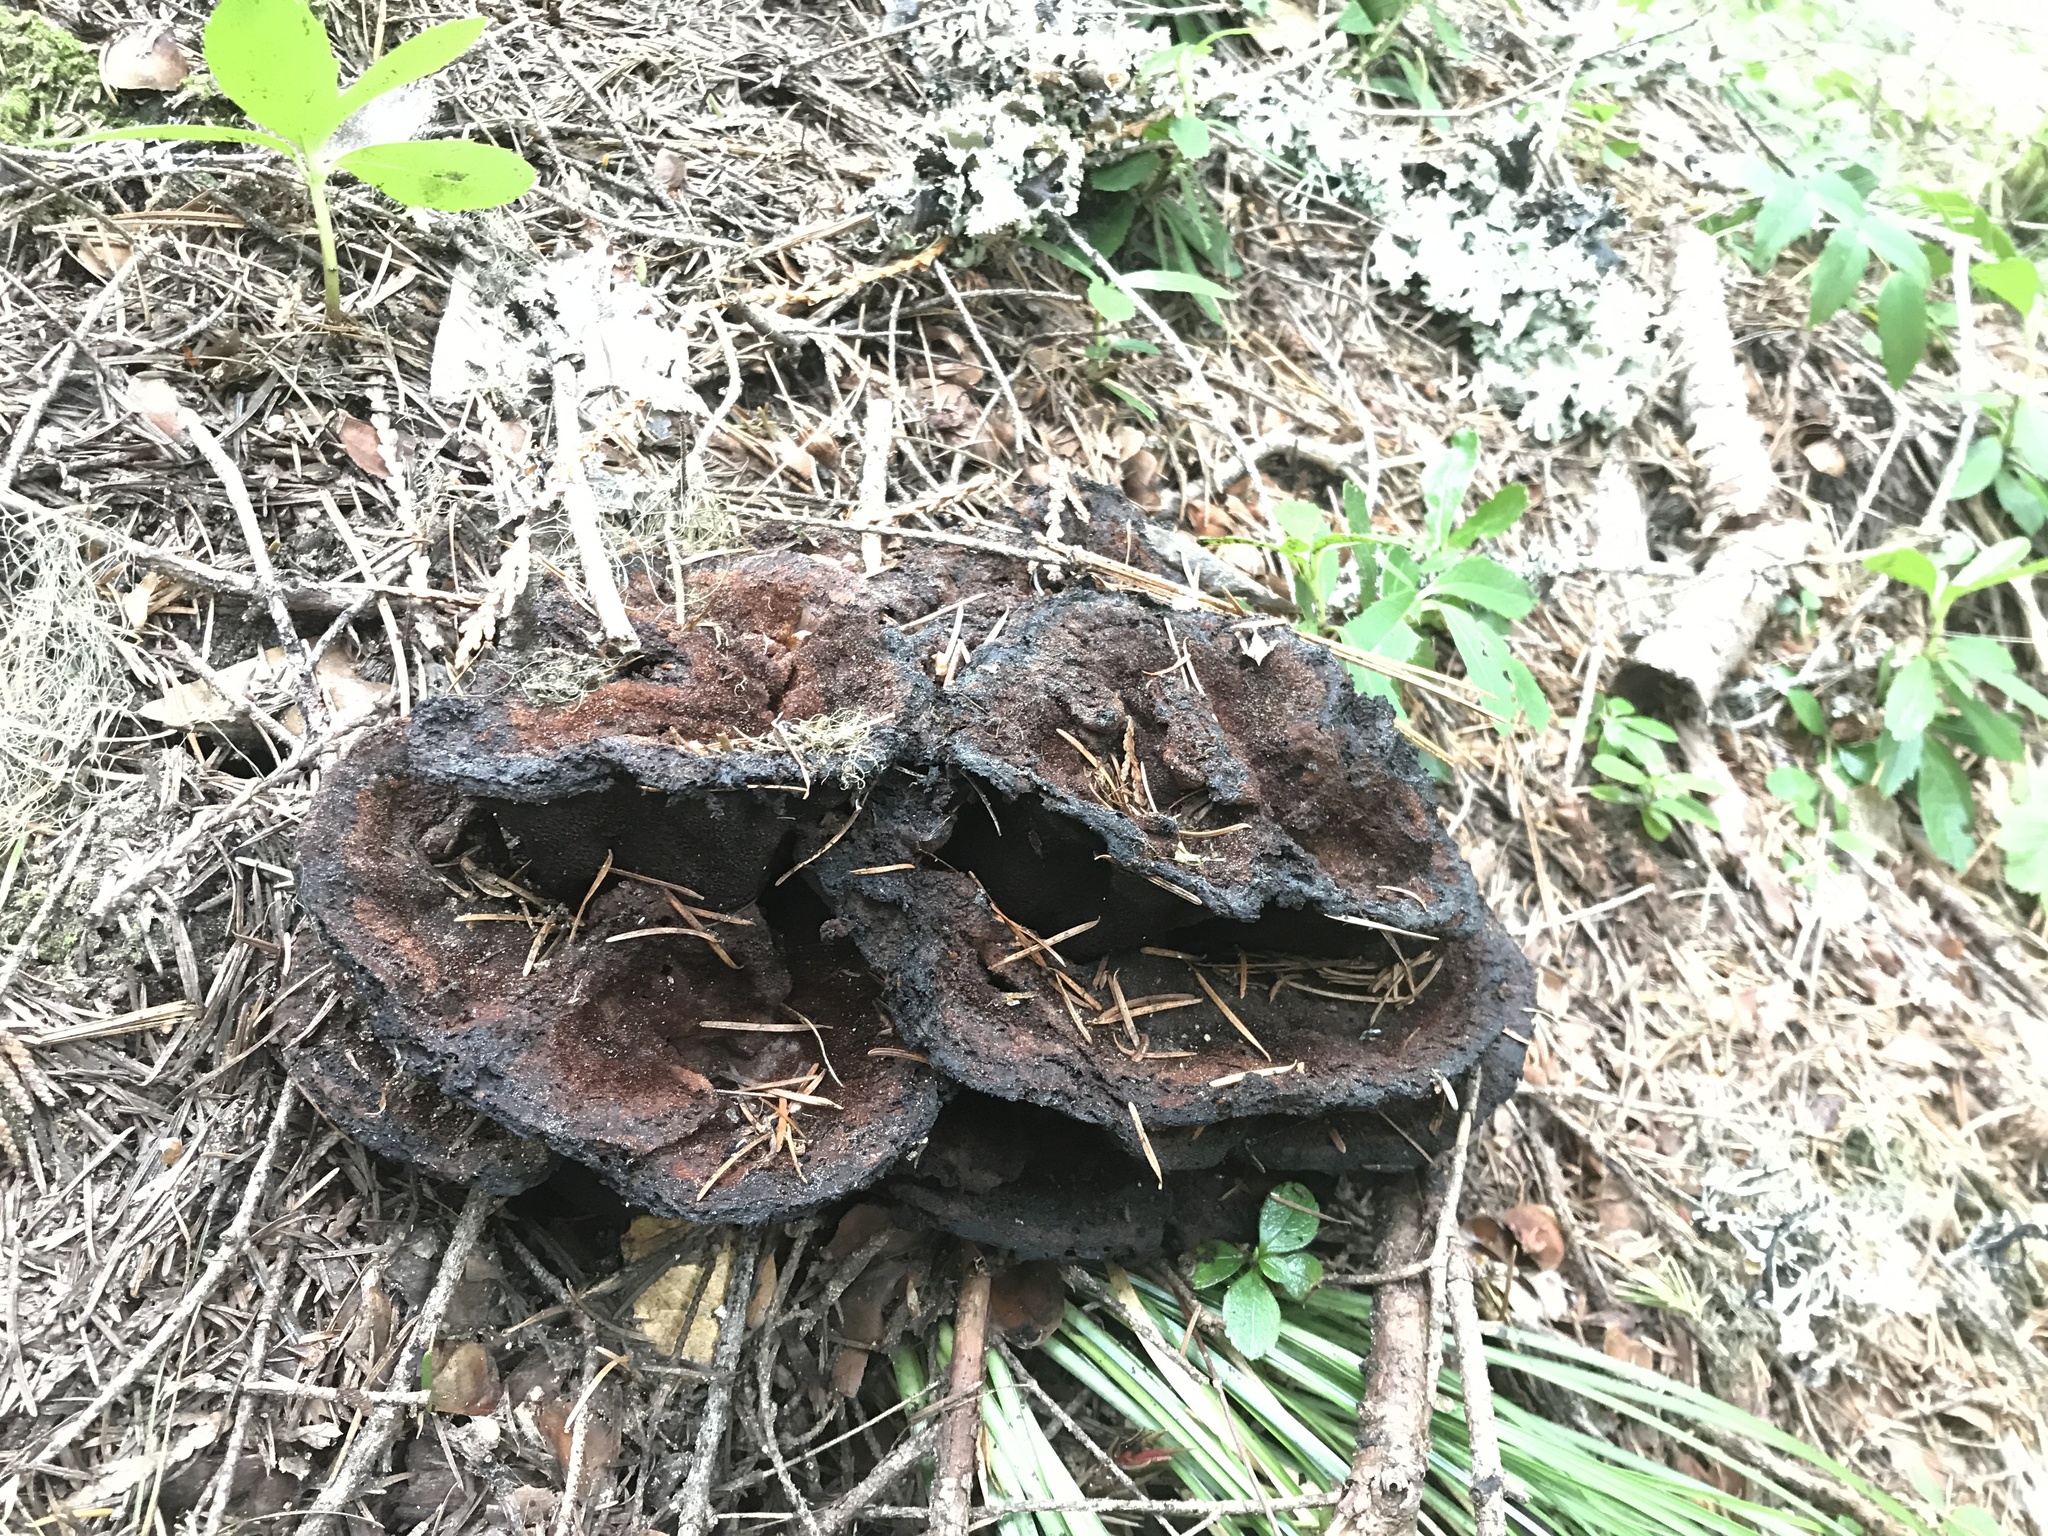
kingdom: Fungi
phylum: Basidiomycota
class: Agaricomycetes
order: Polyporales
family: Laetiporaceae
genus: Phaeolus
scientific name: Phaeolus schweinitzii
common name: Dyer's mazegill
